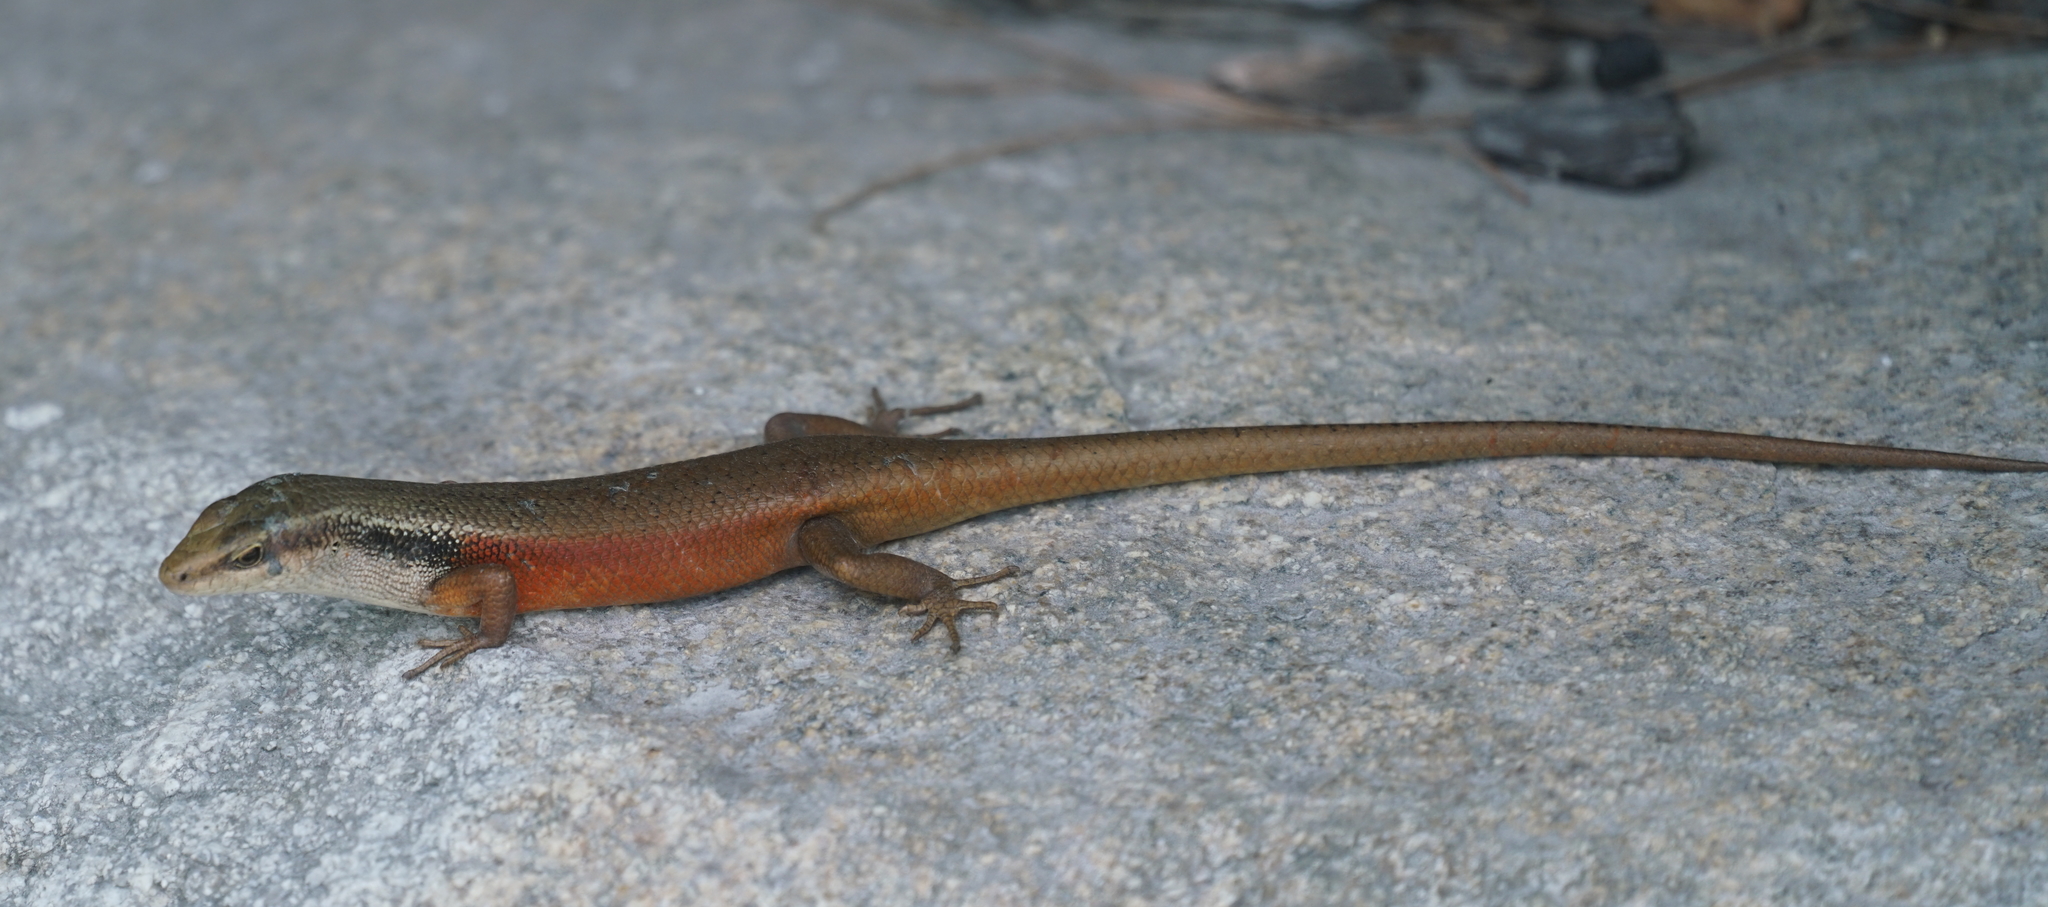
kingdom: Animalia
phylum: Chordata
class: Squamata
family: Scincidae
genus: Carlia
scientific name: Carlia longipes
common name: Closed-litter rainbow-skink
